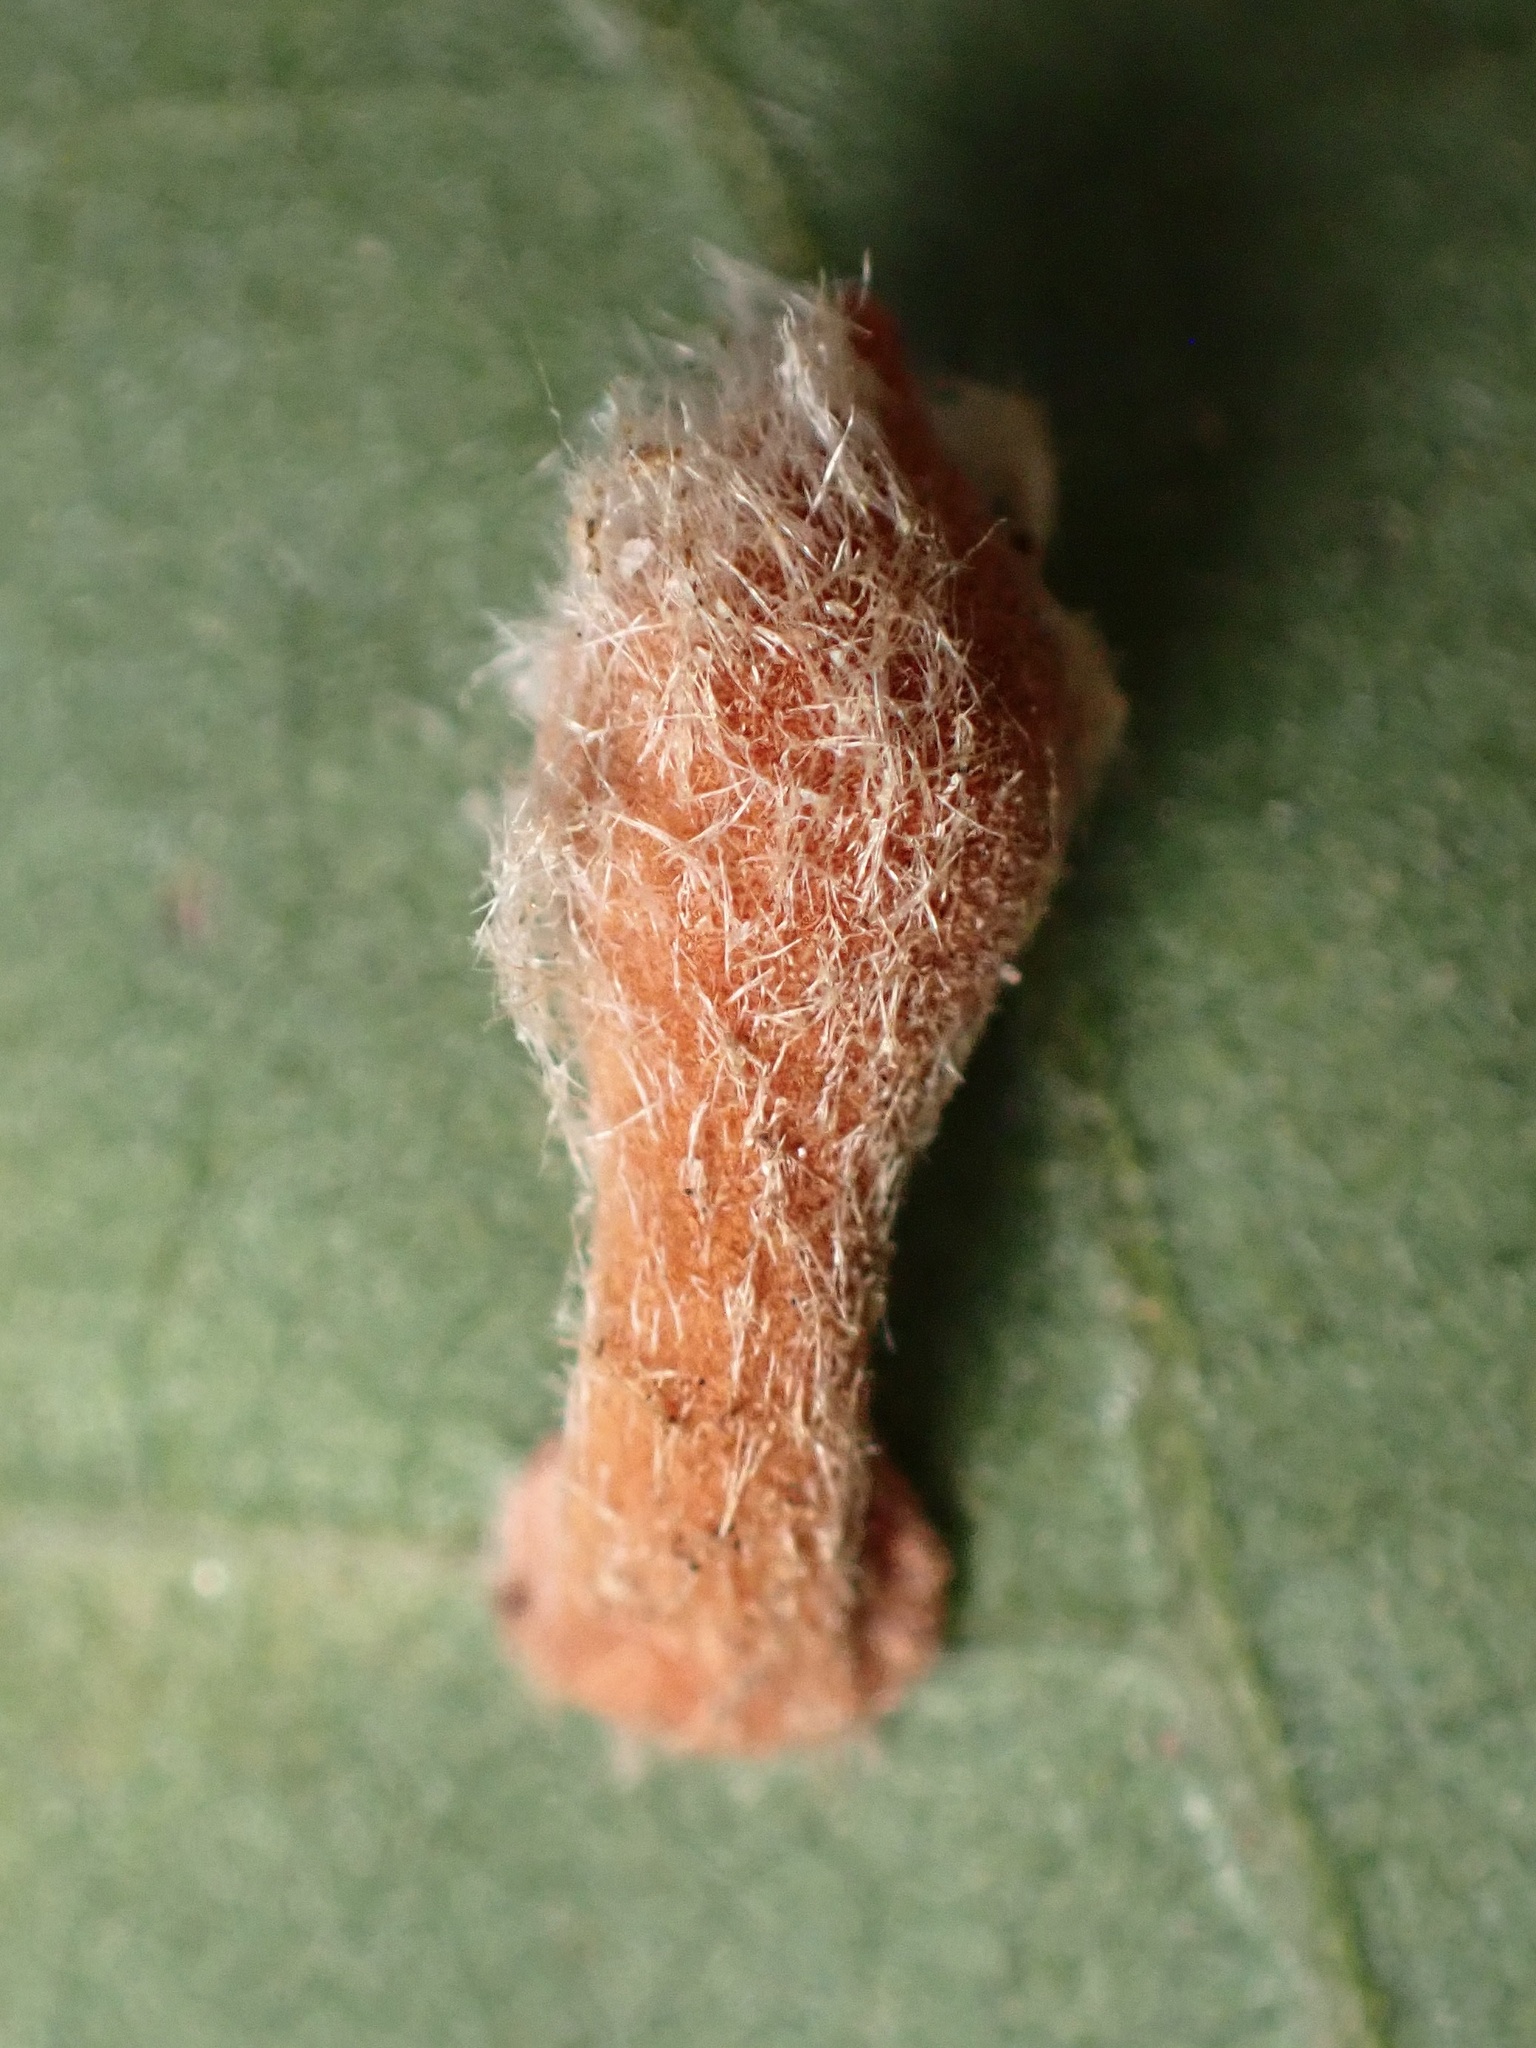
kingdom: Animalia
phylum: Arthropoda
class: Insecta
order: Hymenoptera
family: Cynipidae
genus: Atrusca
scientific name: Atrusca
